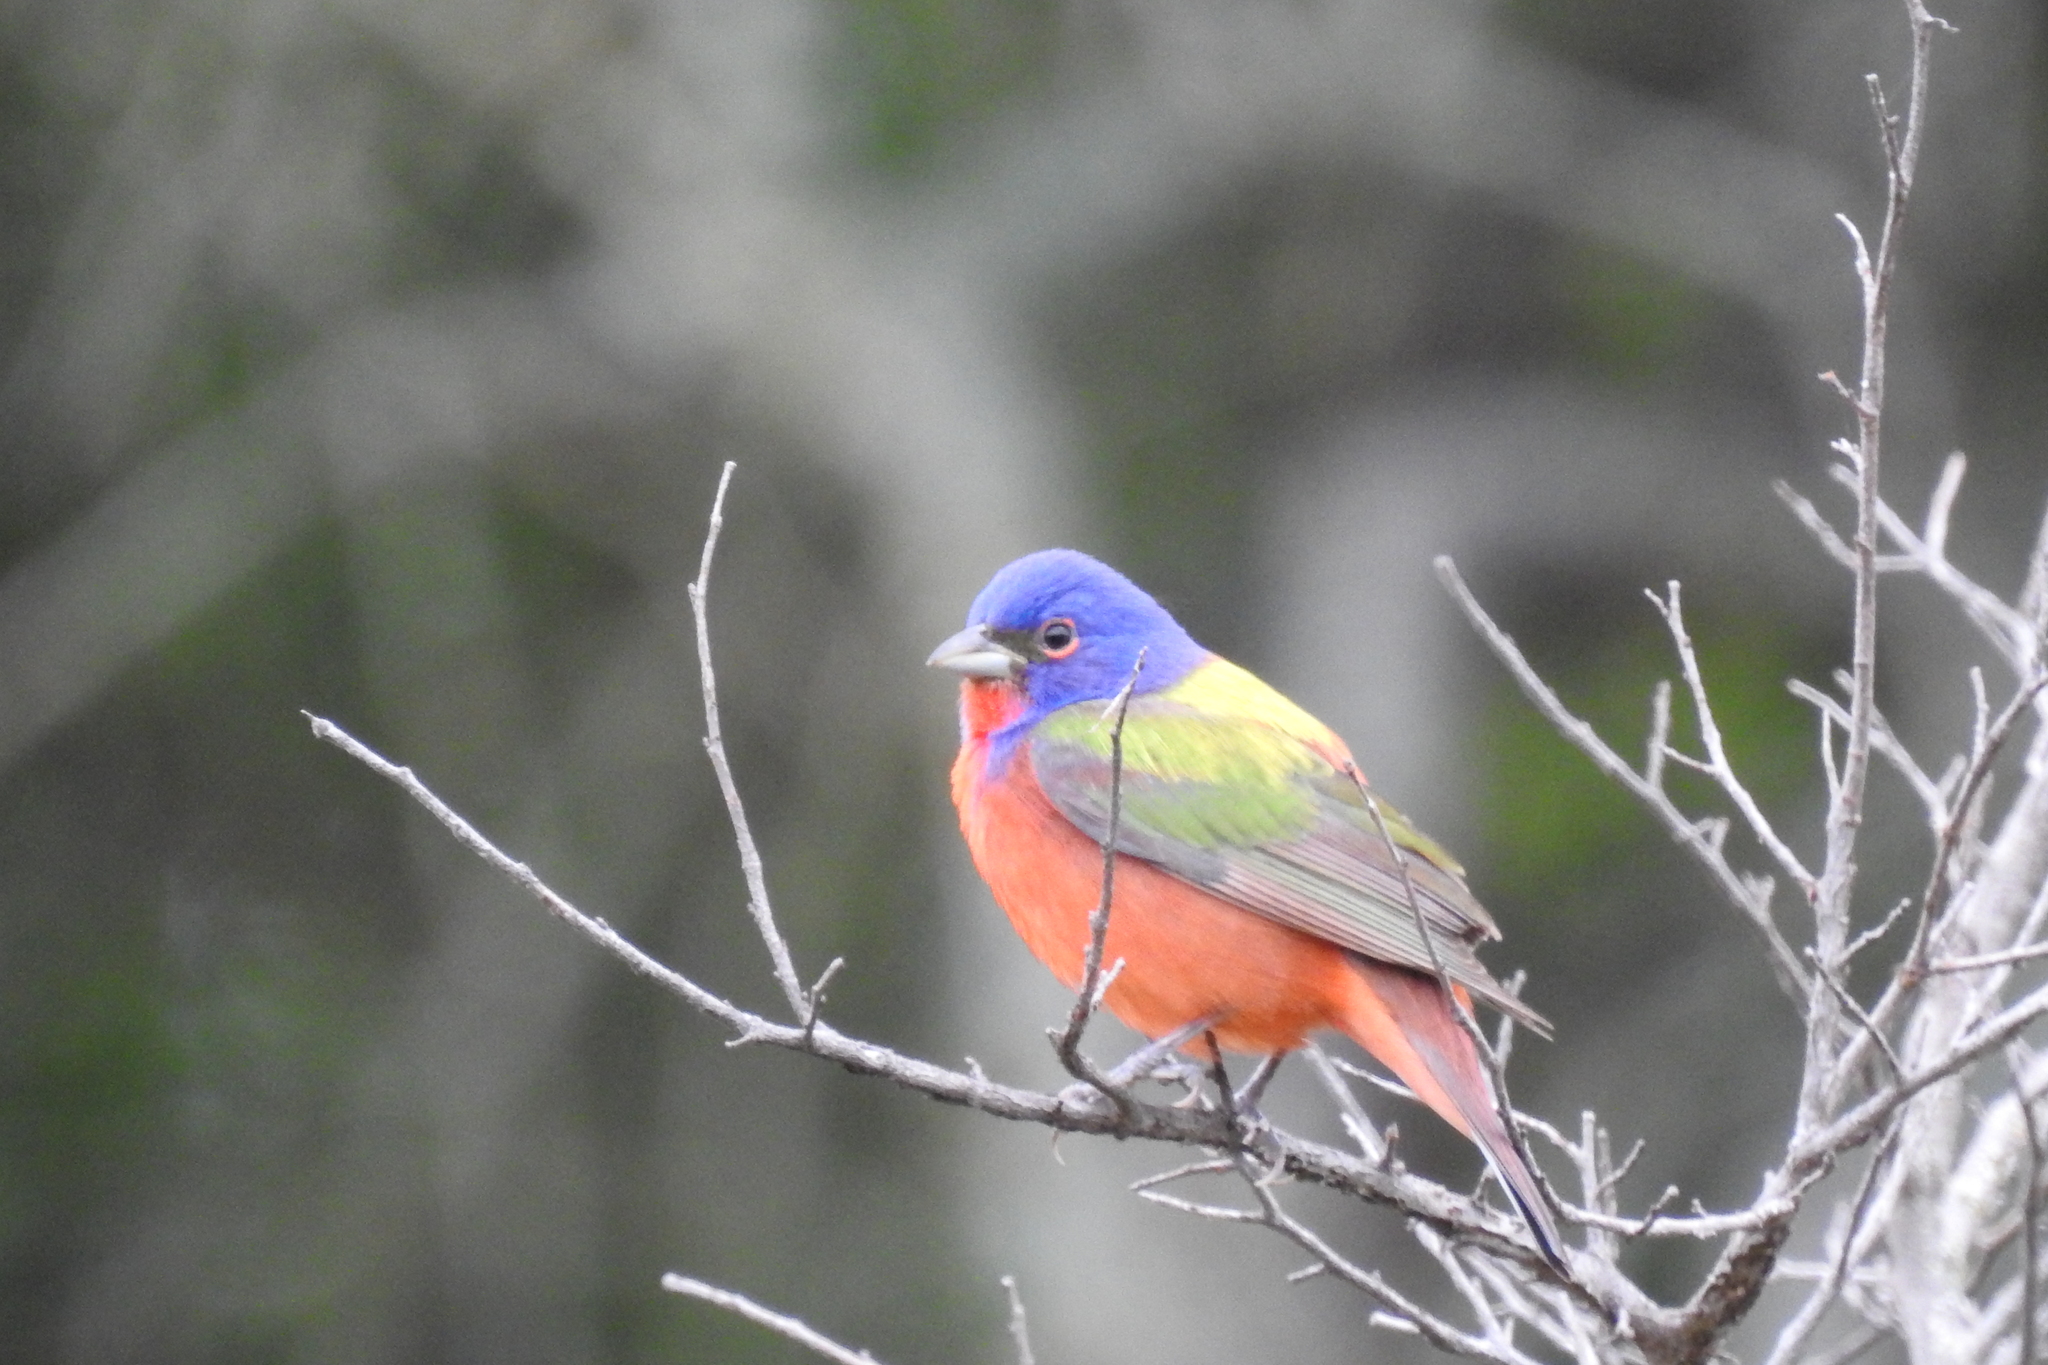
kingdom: Animalia
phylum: Chordata
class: Aves
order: Passeriformes
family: Cardinalidae
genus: Passerina
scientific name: Passerina ciris
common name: Painted bunting
